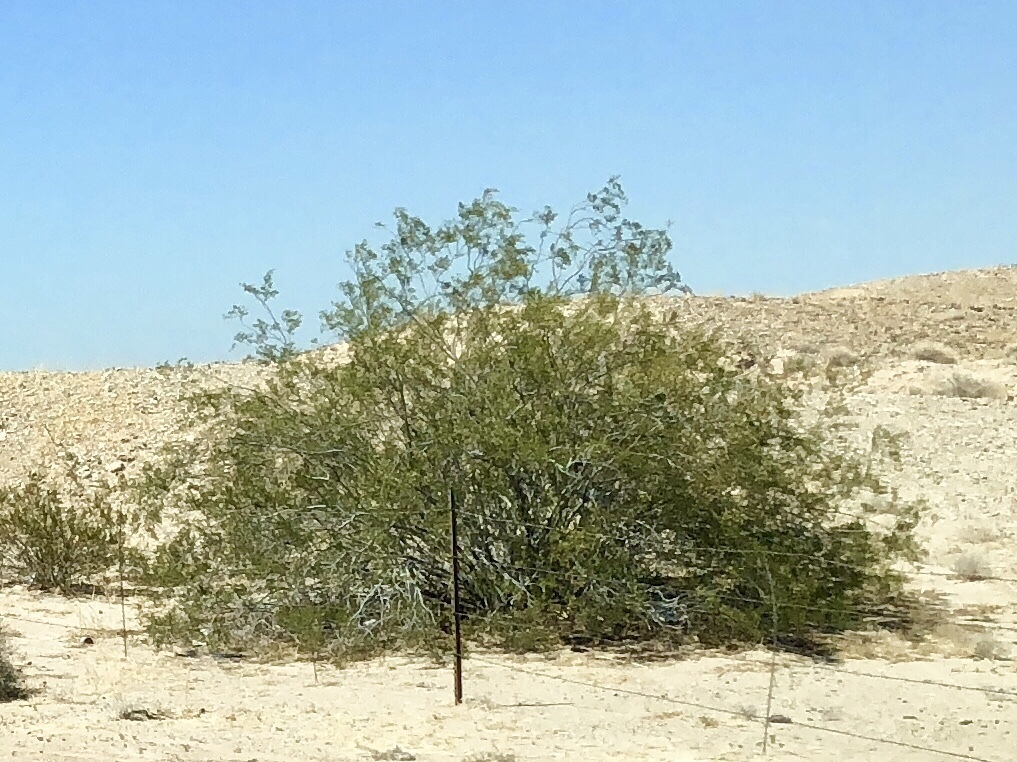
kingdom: Plantae
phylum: Tracheophyta
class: Magnoliopsida
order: Zygophyllales
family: Zygophyllaceae
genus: Larrea
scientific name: Larrea tridentata
